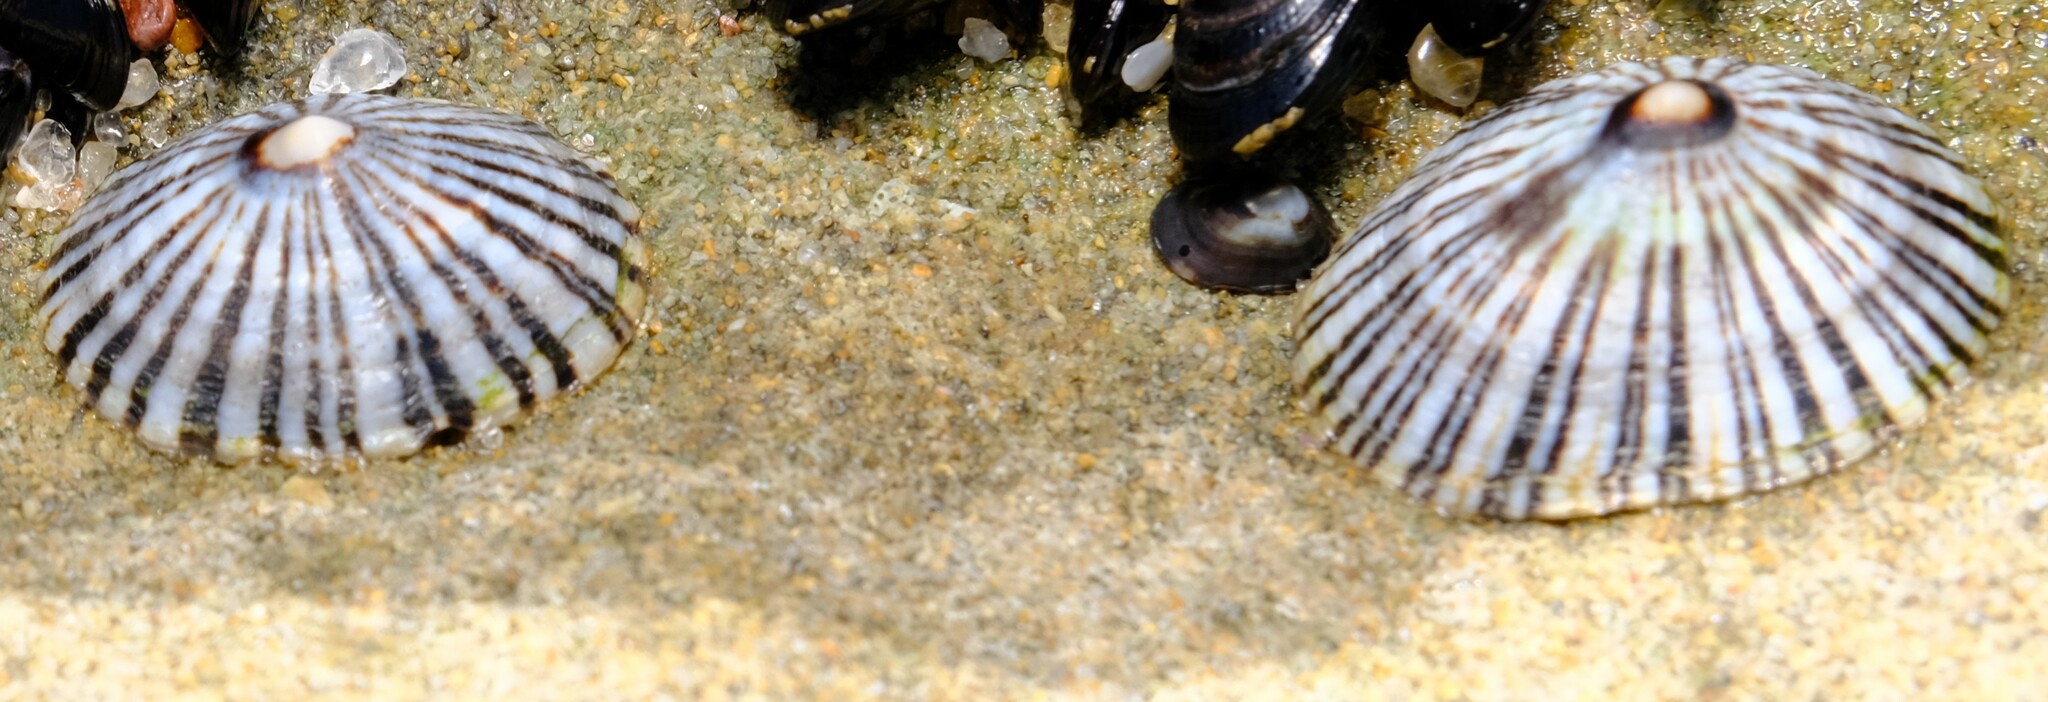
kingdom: Animalia
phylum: Mollusca
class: Gastropoda
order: Siphonariida
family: Siphonariidae
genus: Siphonaria
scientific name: Siphonaria funiculata
